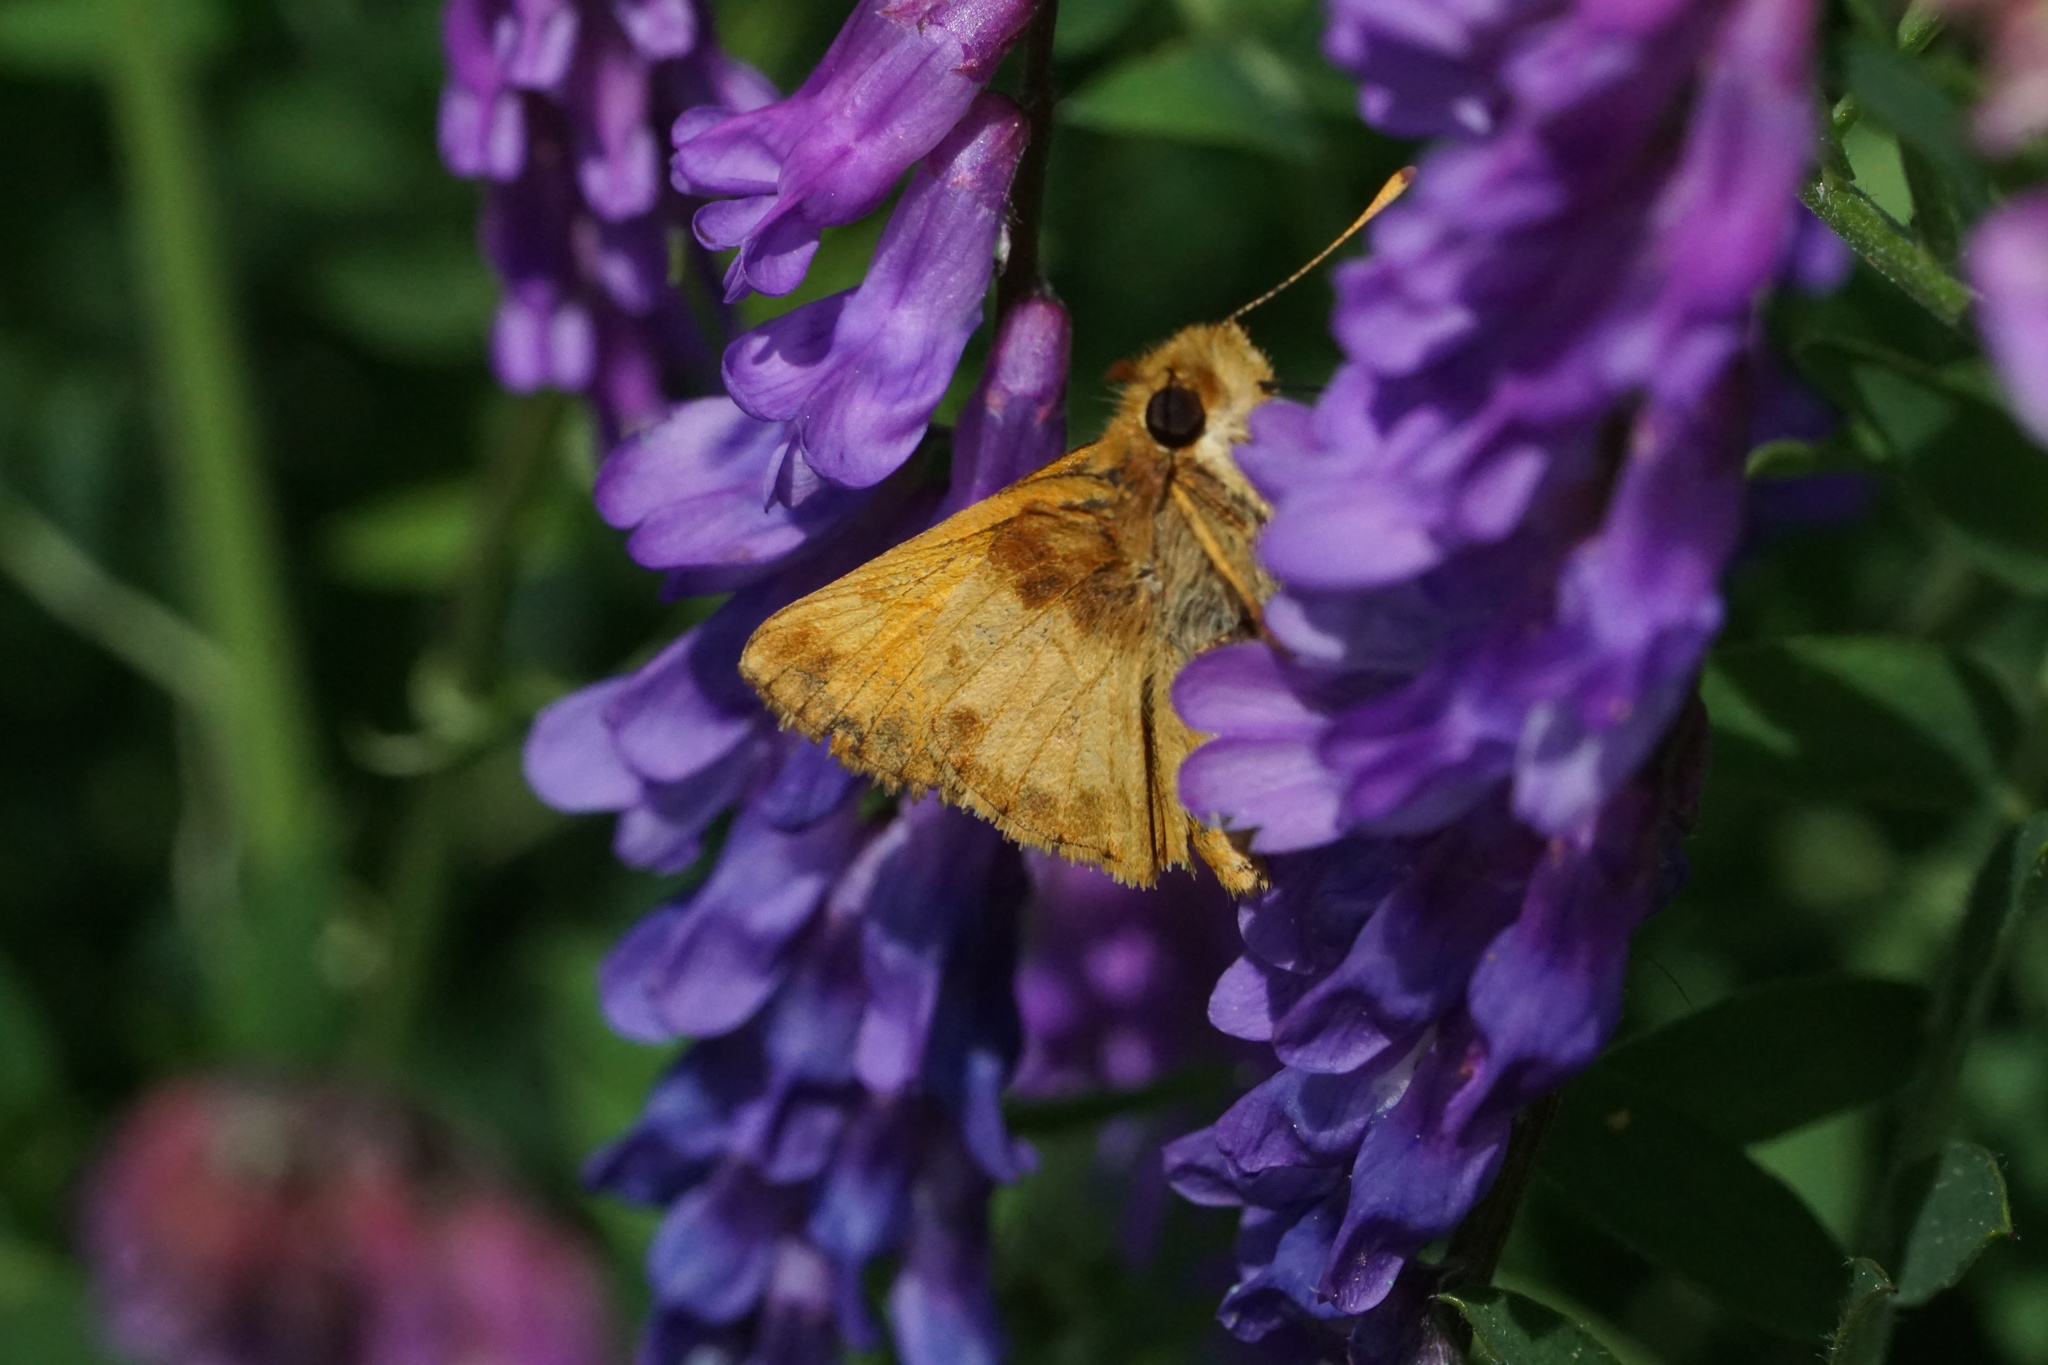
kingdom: Animalia
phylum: Arthropoda
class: Insecta
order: Lepidoptera
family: Hesperiidae
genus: Lon
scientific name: Lon zabulon
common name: Zabulon skipper
